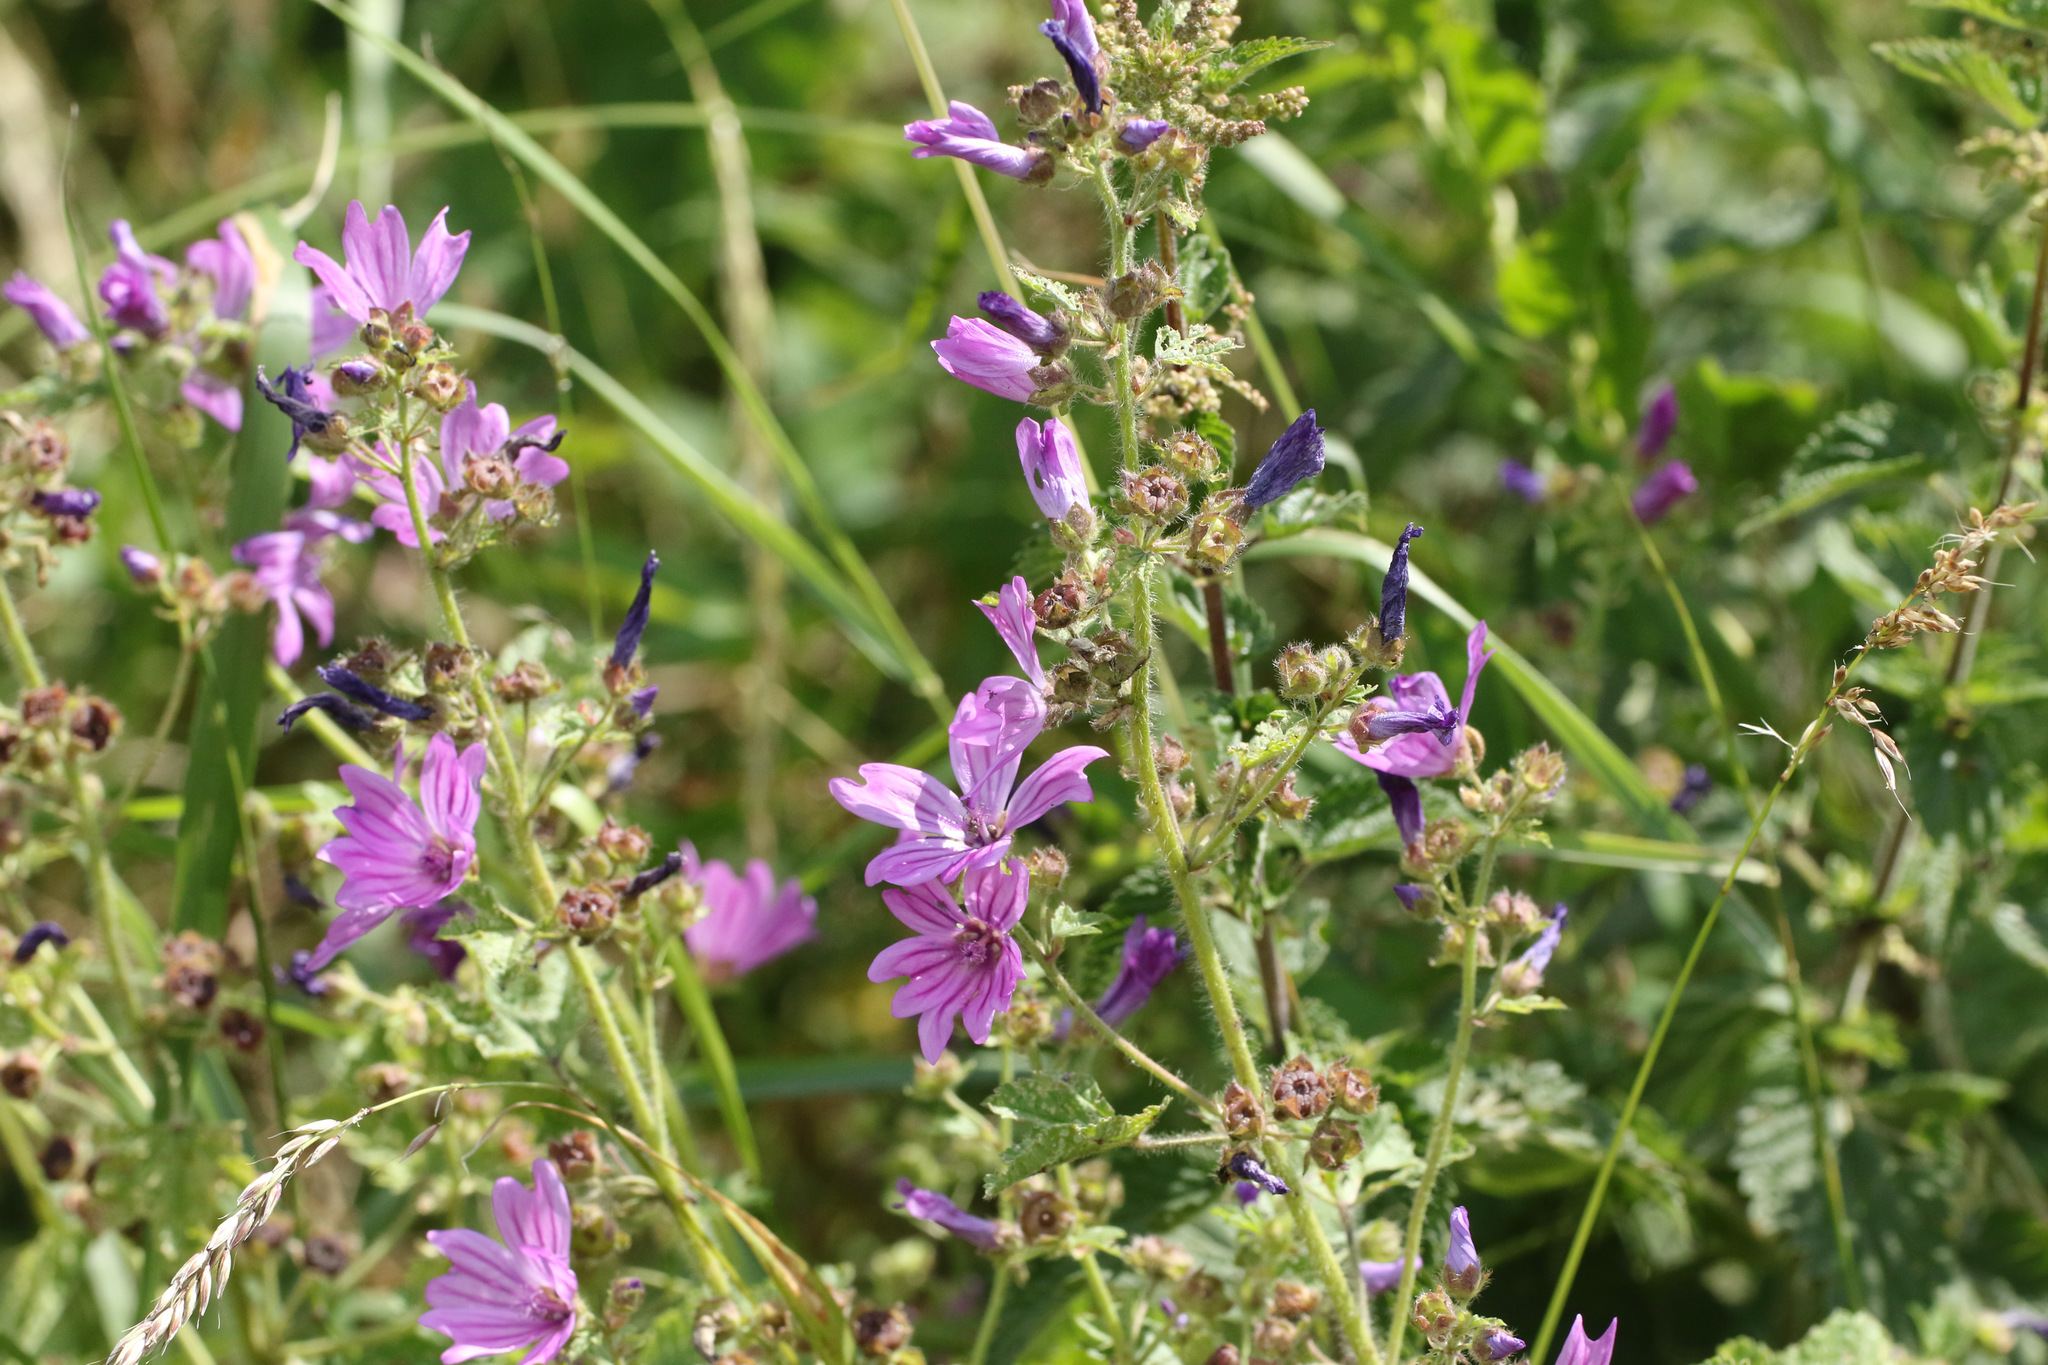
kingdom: Plantae
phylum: Tracheophyta
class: Magnoliopsida
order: Malvales
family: Malvaceae
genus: Malva
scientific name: Malva sylvestris
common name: Common mallow
